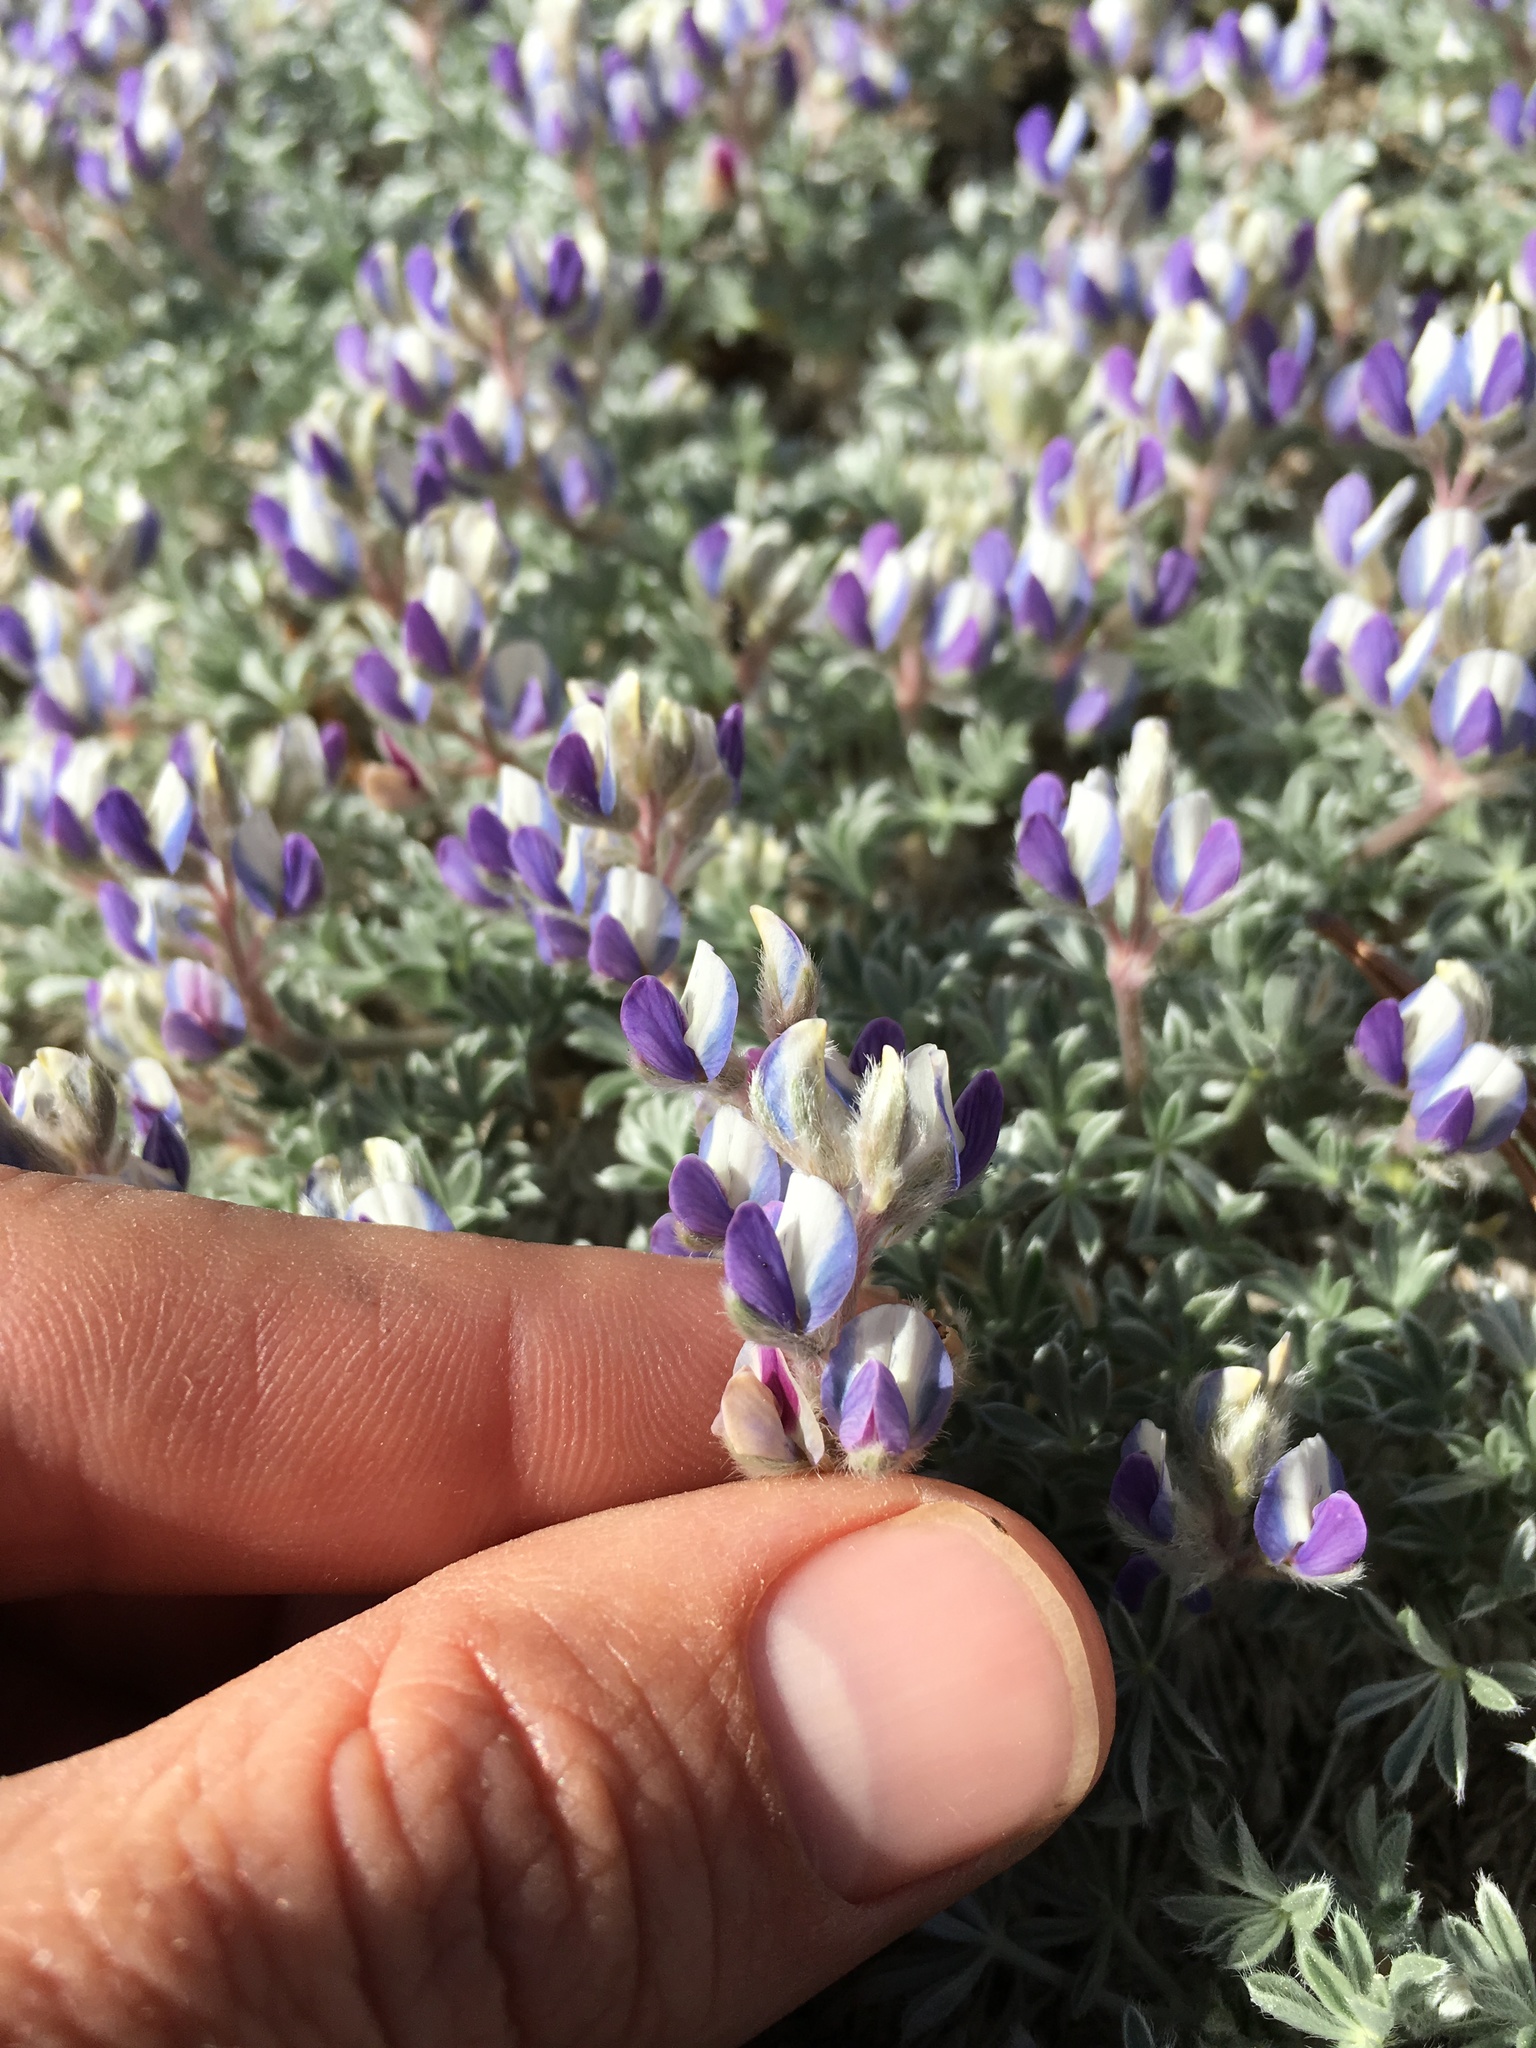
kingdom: Plantae
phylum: Tracheophyta
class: Magnoliopsida
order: Fabales
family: Fabaceae
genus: Lupinus
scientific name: Lupinus breweri
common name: Brewer's lupine
